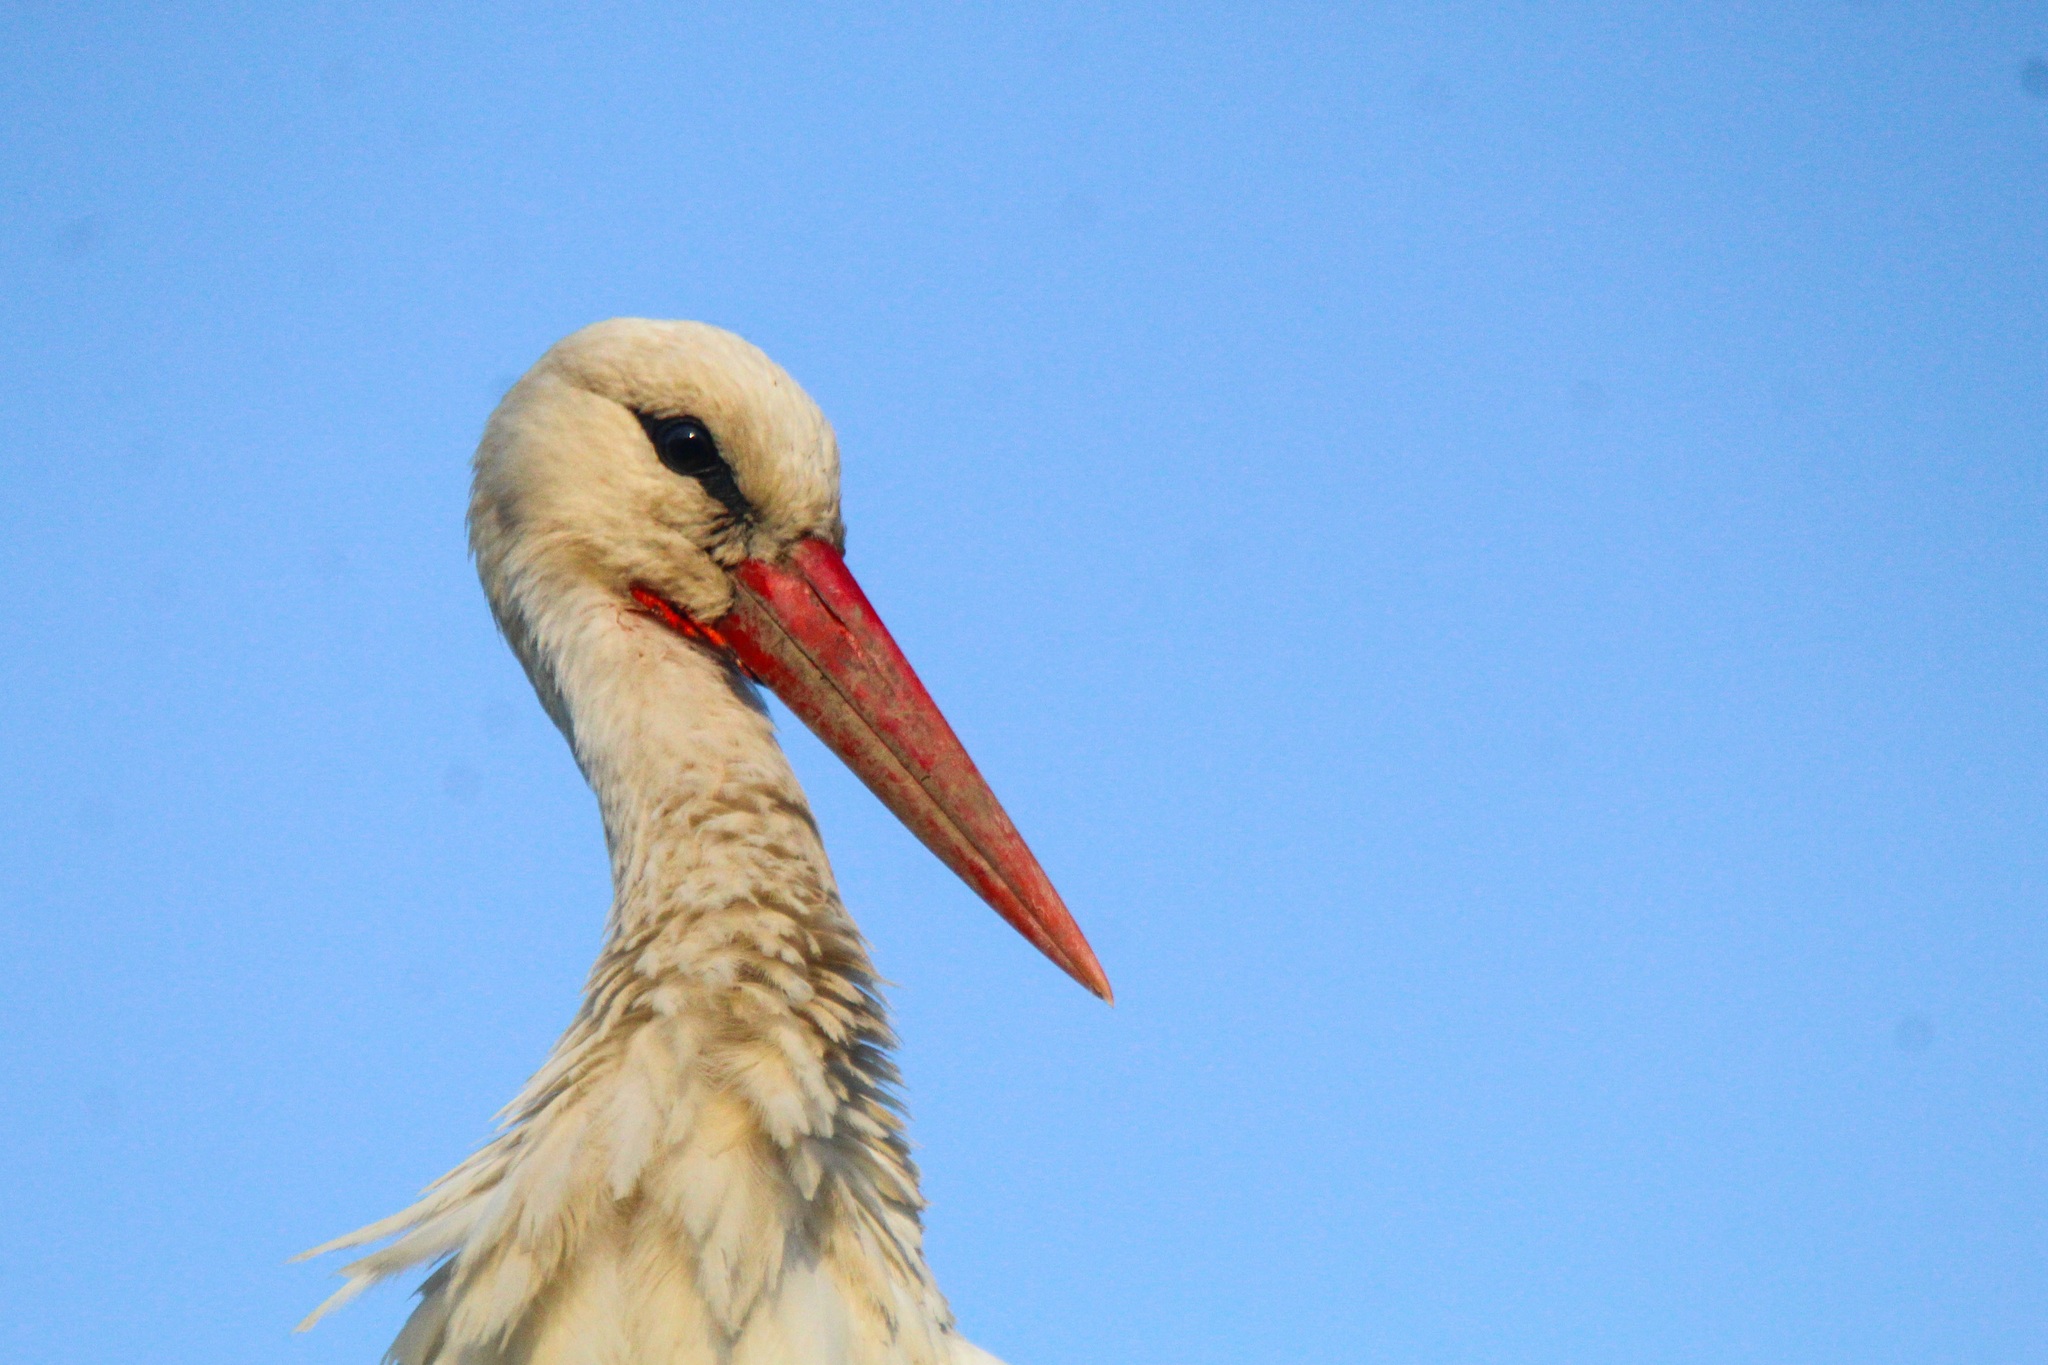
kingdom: Animalia
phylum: Chordata
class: Aves
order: Ciconiiformes
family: Ciconiidae
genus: Ciconia
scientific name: Ciconia ciconia
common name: White stork
